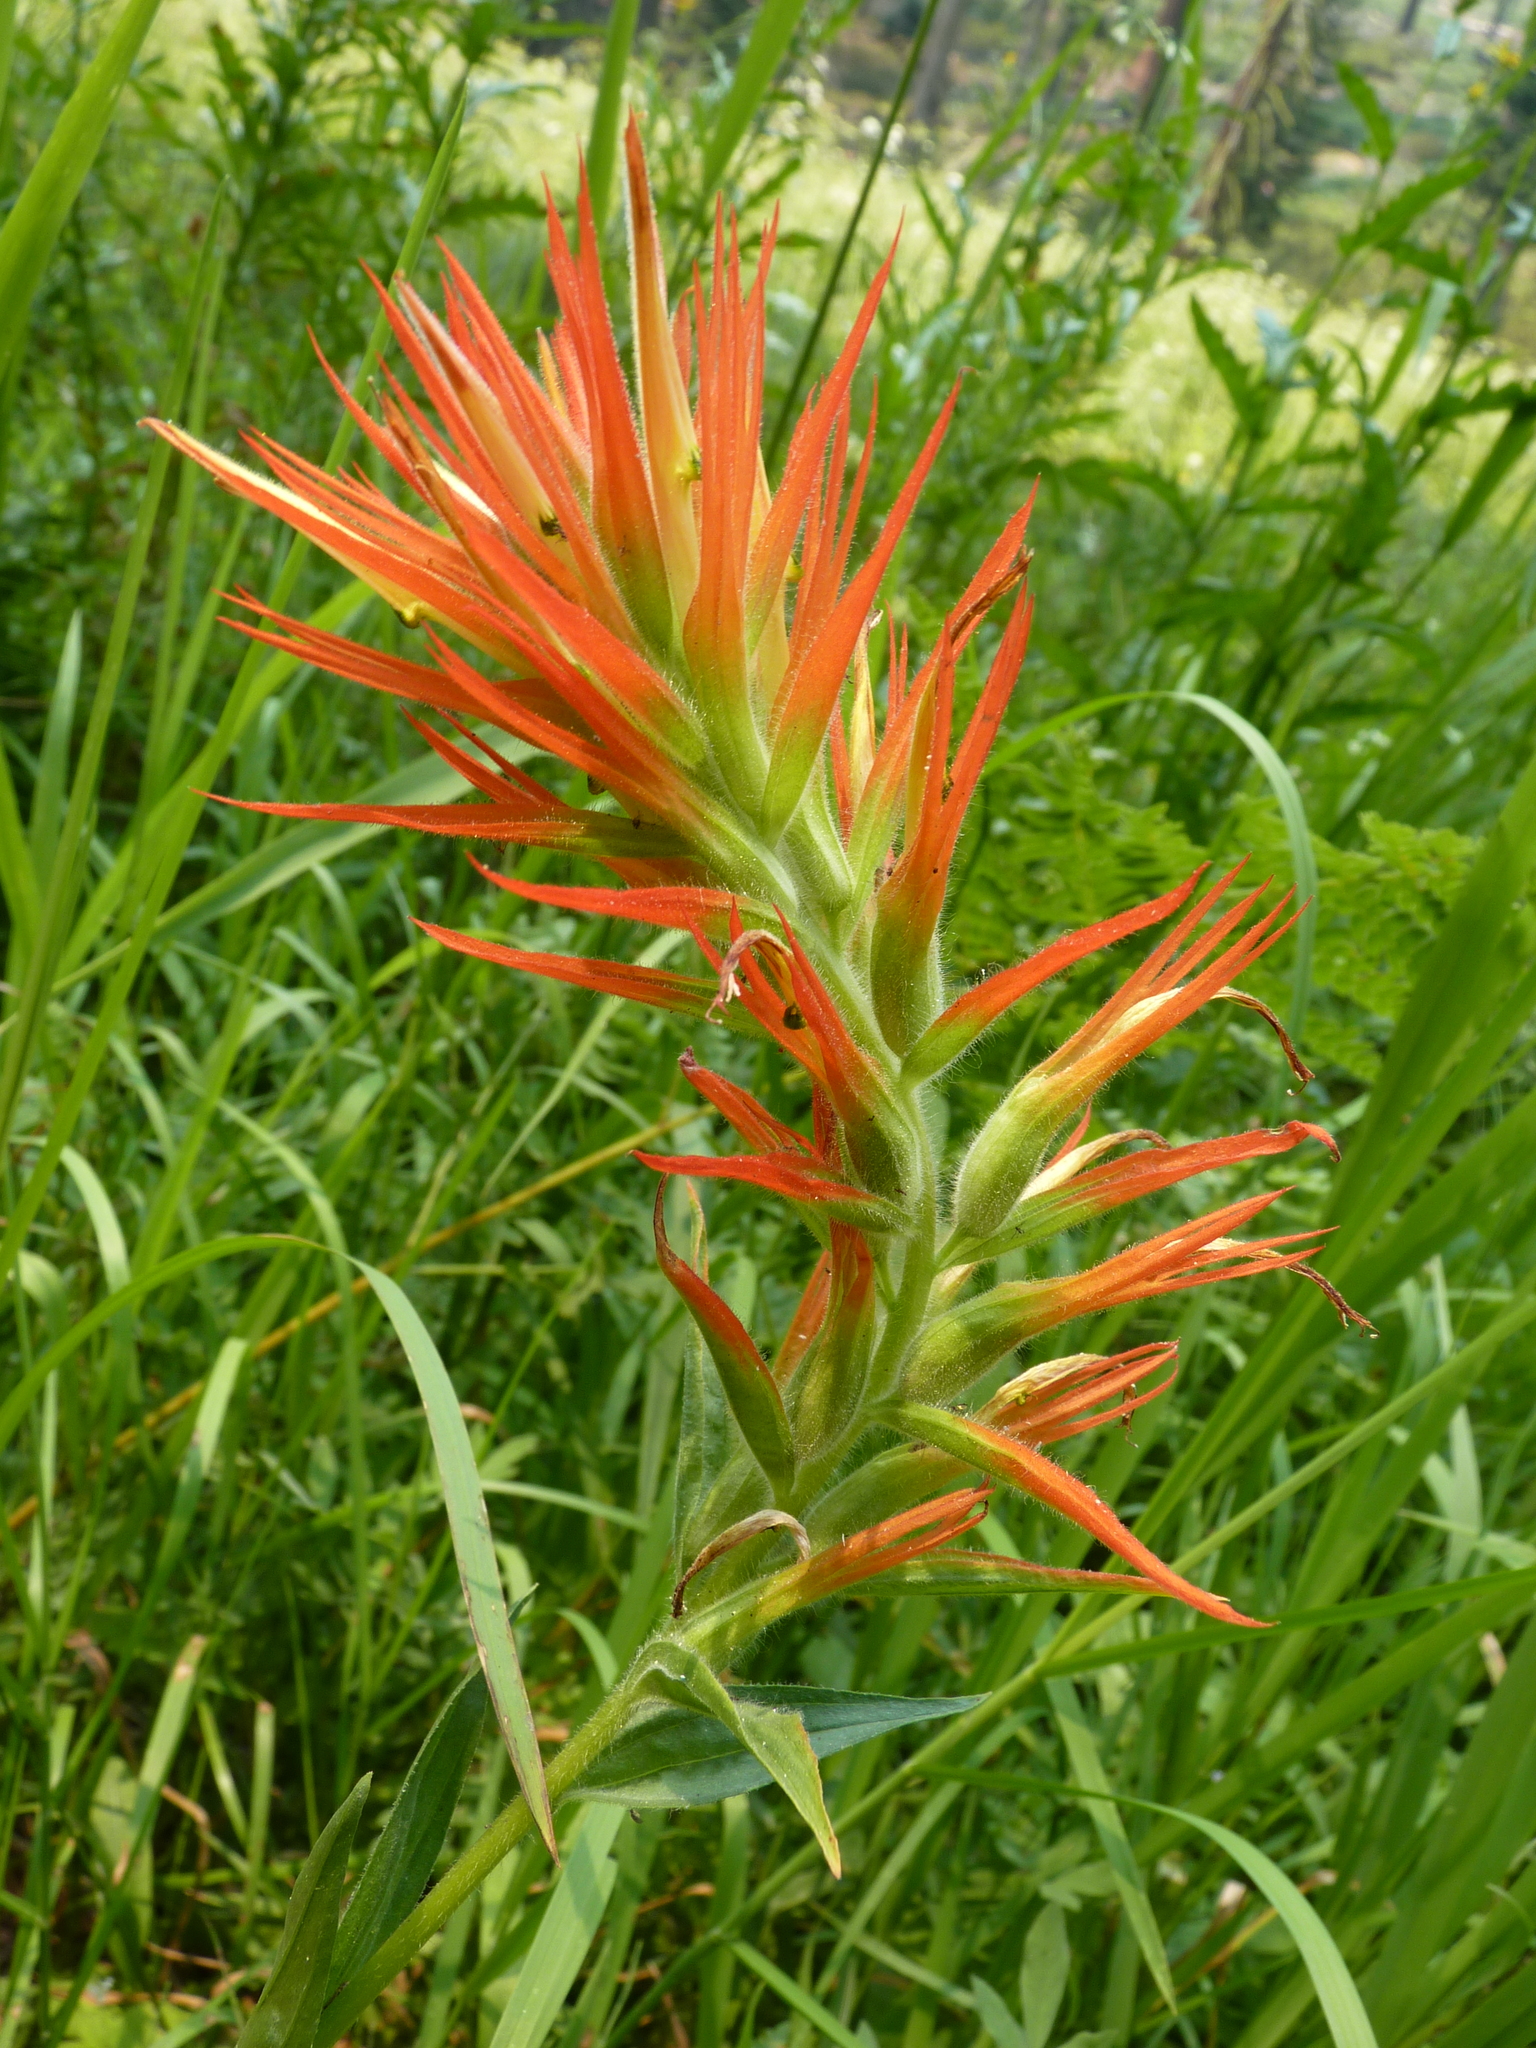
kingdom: Plantae
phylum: Tracheophyta
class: Magnoliopsida
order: Lamiales
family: Orobanchaceae
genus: Castilleja
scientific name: Castilleja miniata
